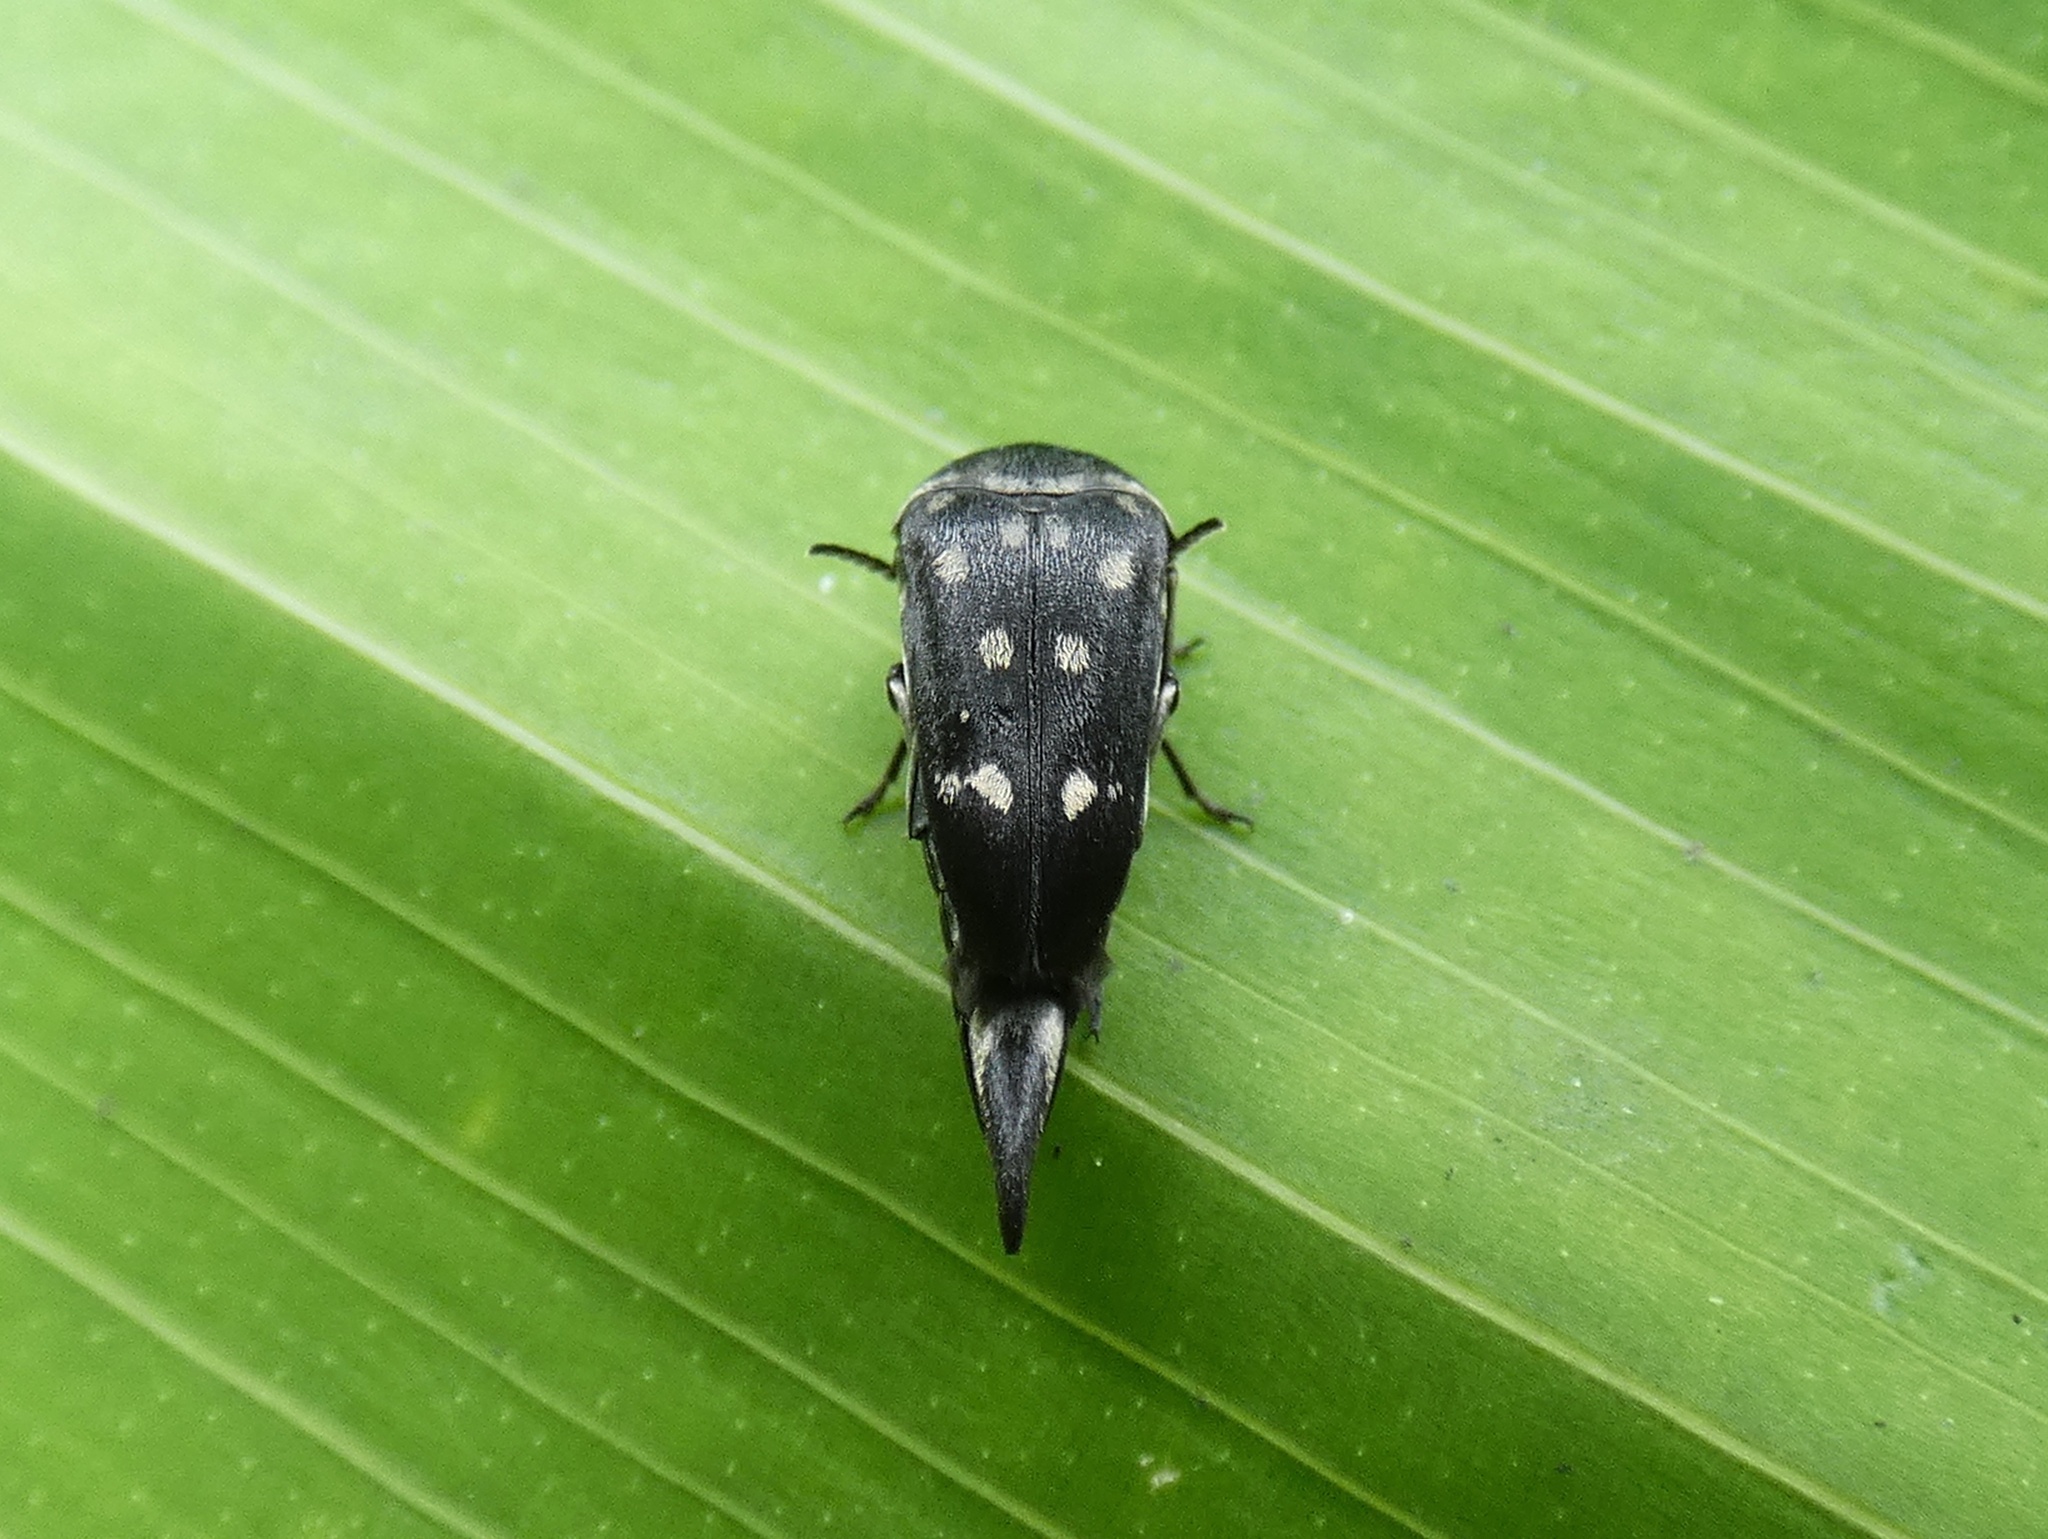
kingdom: Animalia
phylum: Arthropoda
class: Insecta
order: Coleoptera
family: Mordellidae
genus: Mordella
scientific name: Mordella
